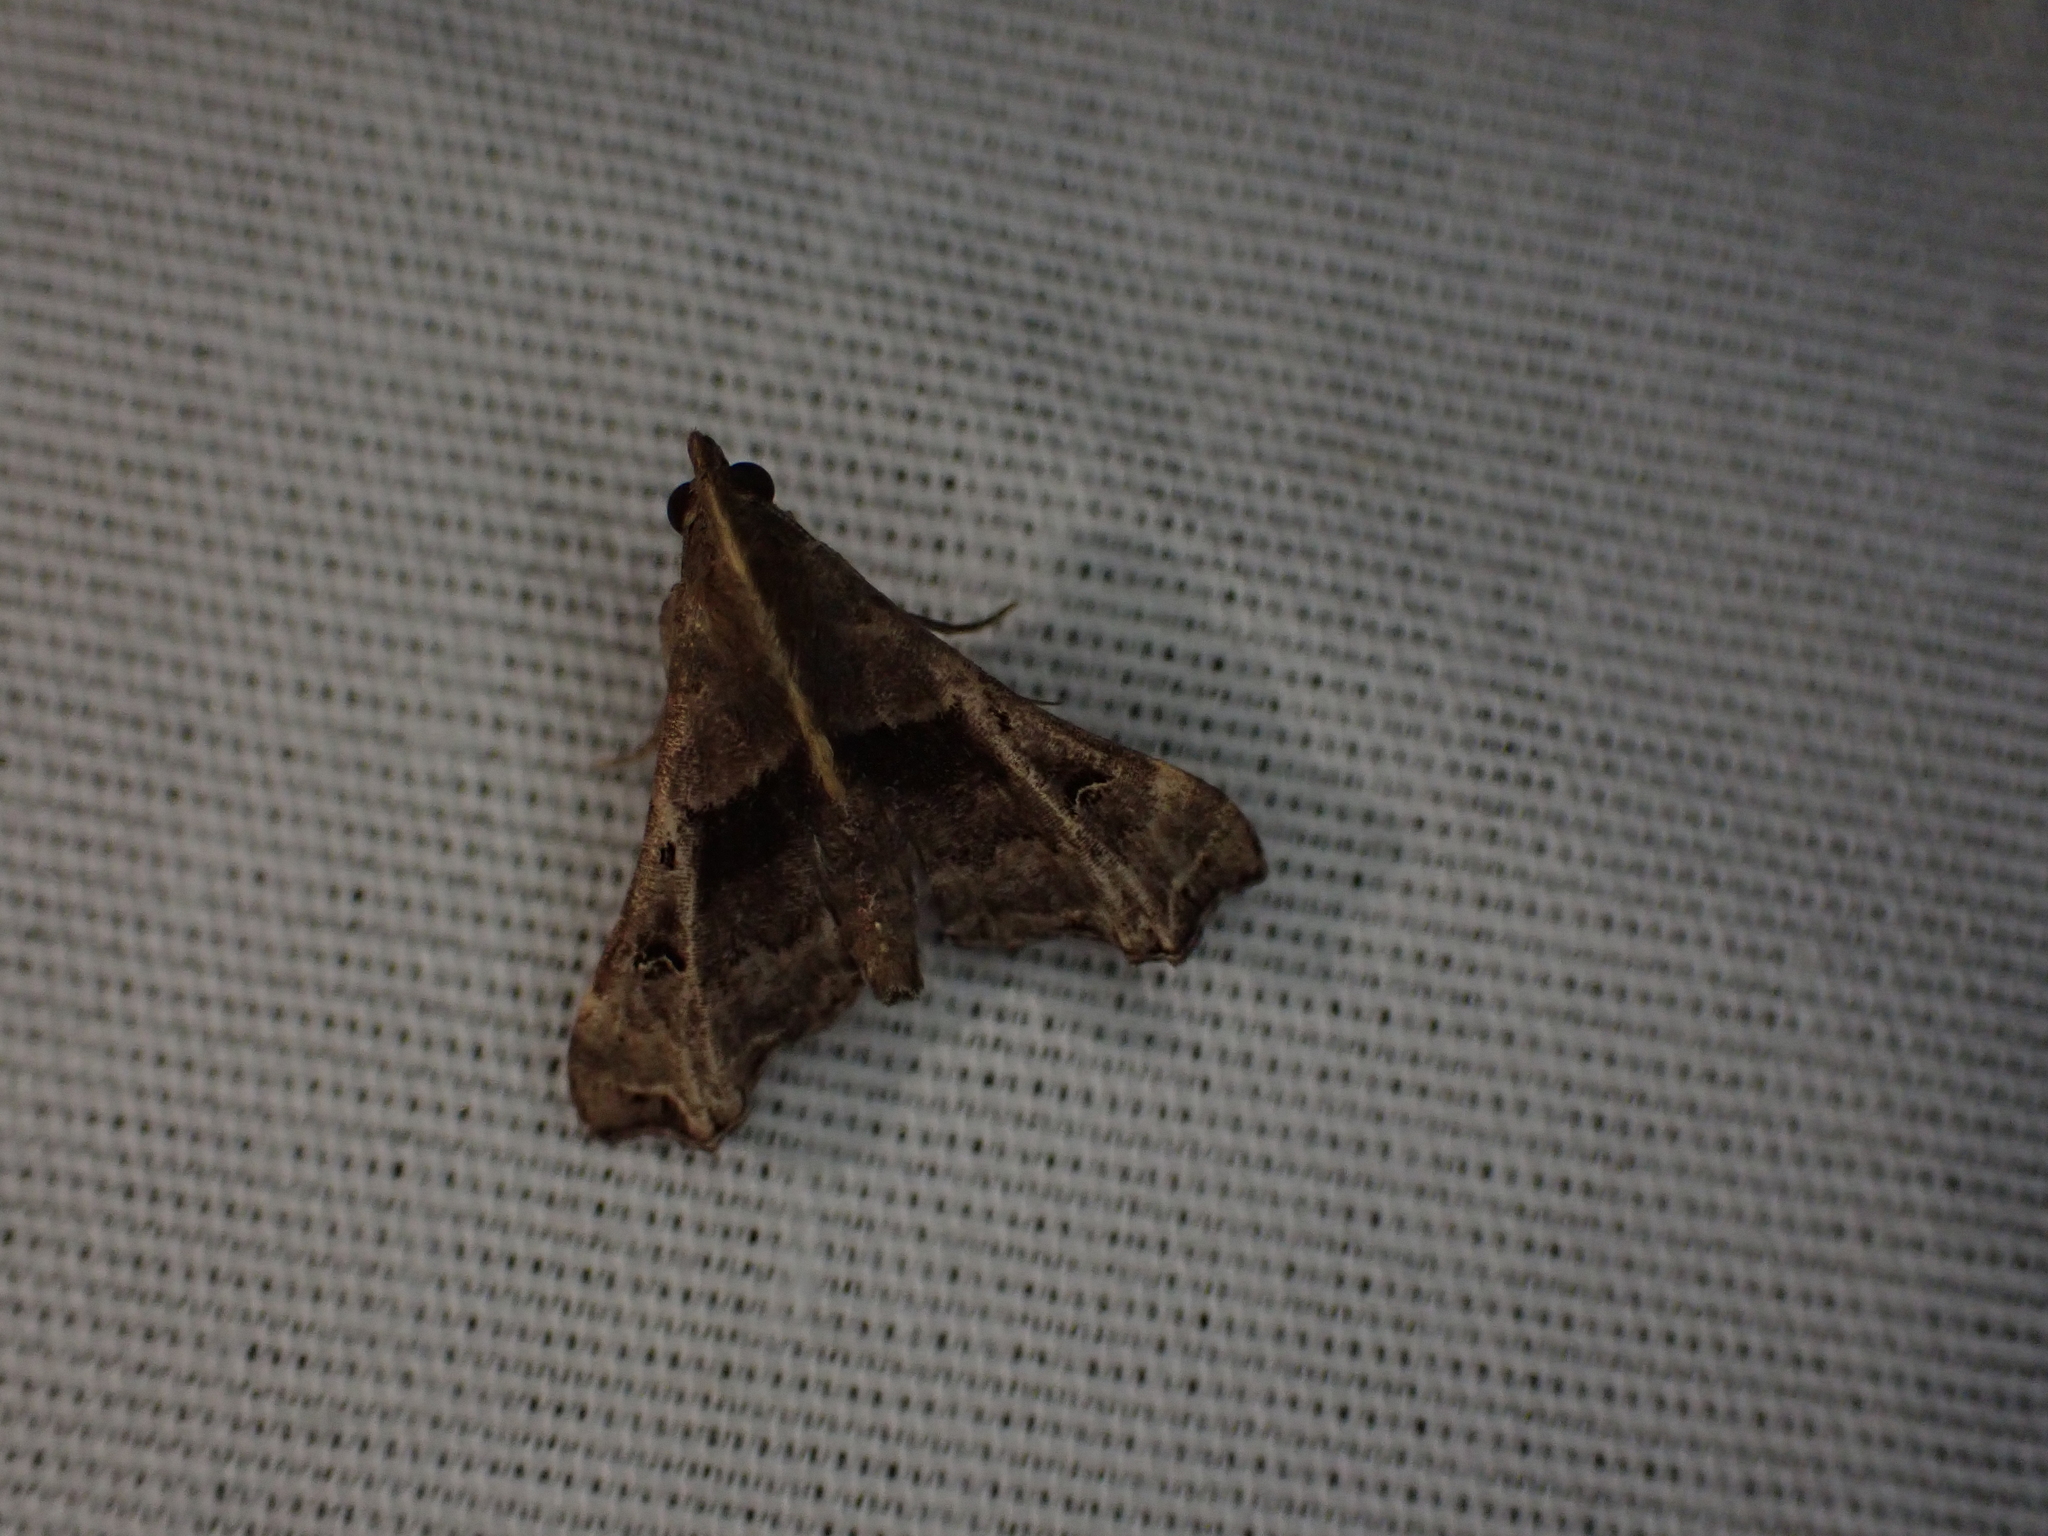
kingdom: Animalia
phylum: Arthropoda
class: Insecta
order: Lepidoptera
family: Erebidae
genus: Palthis
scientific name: Palthis asopialis
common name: Faint-spotted palthis moth
